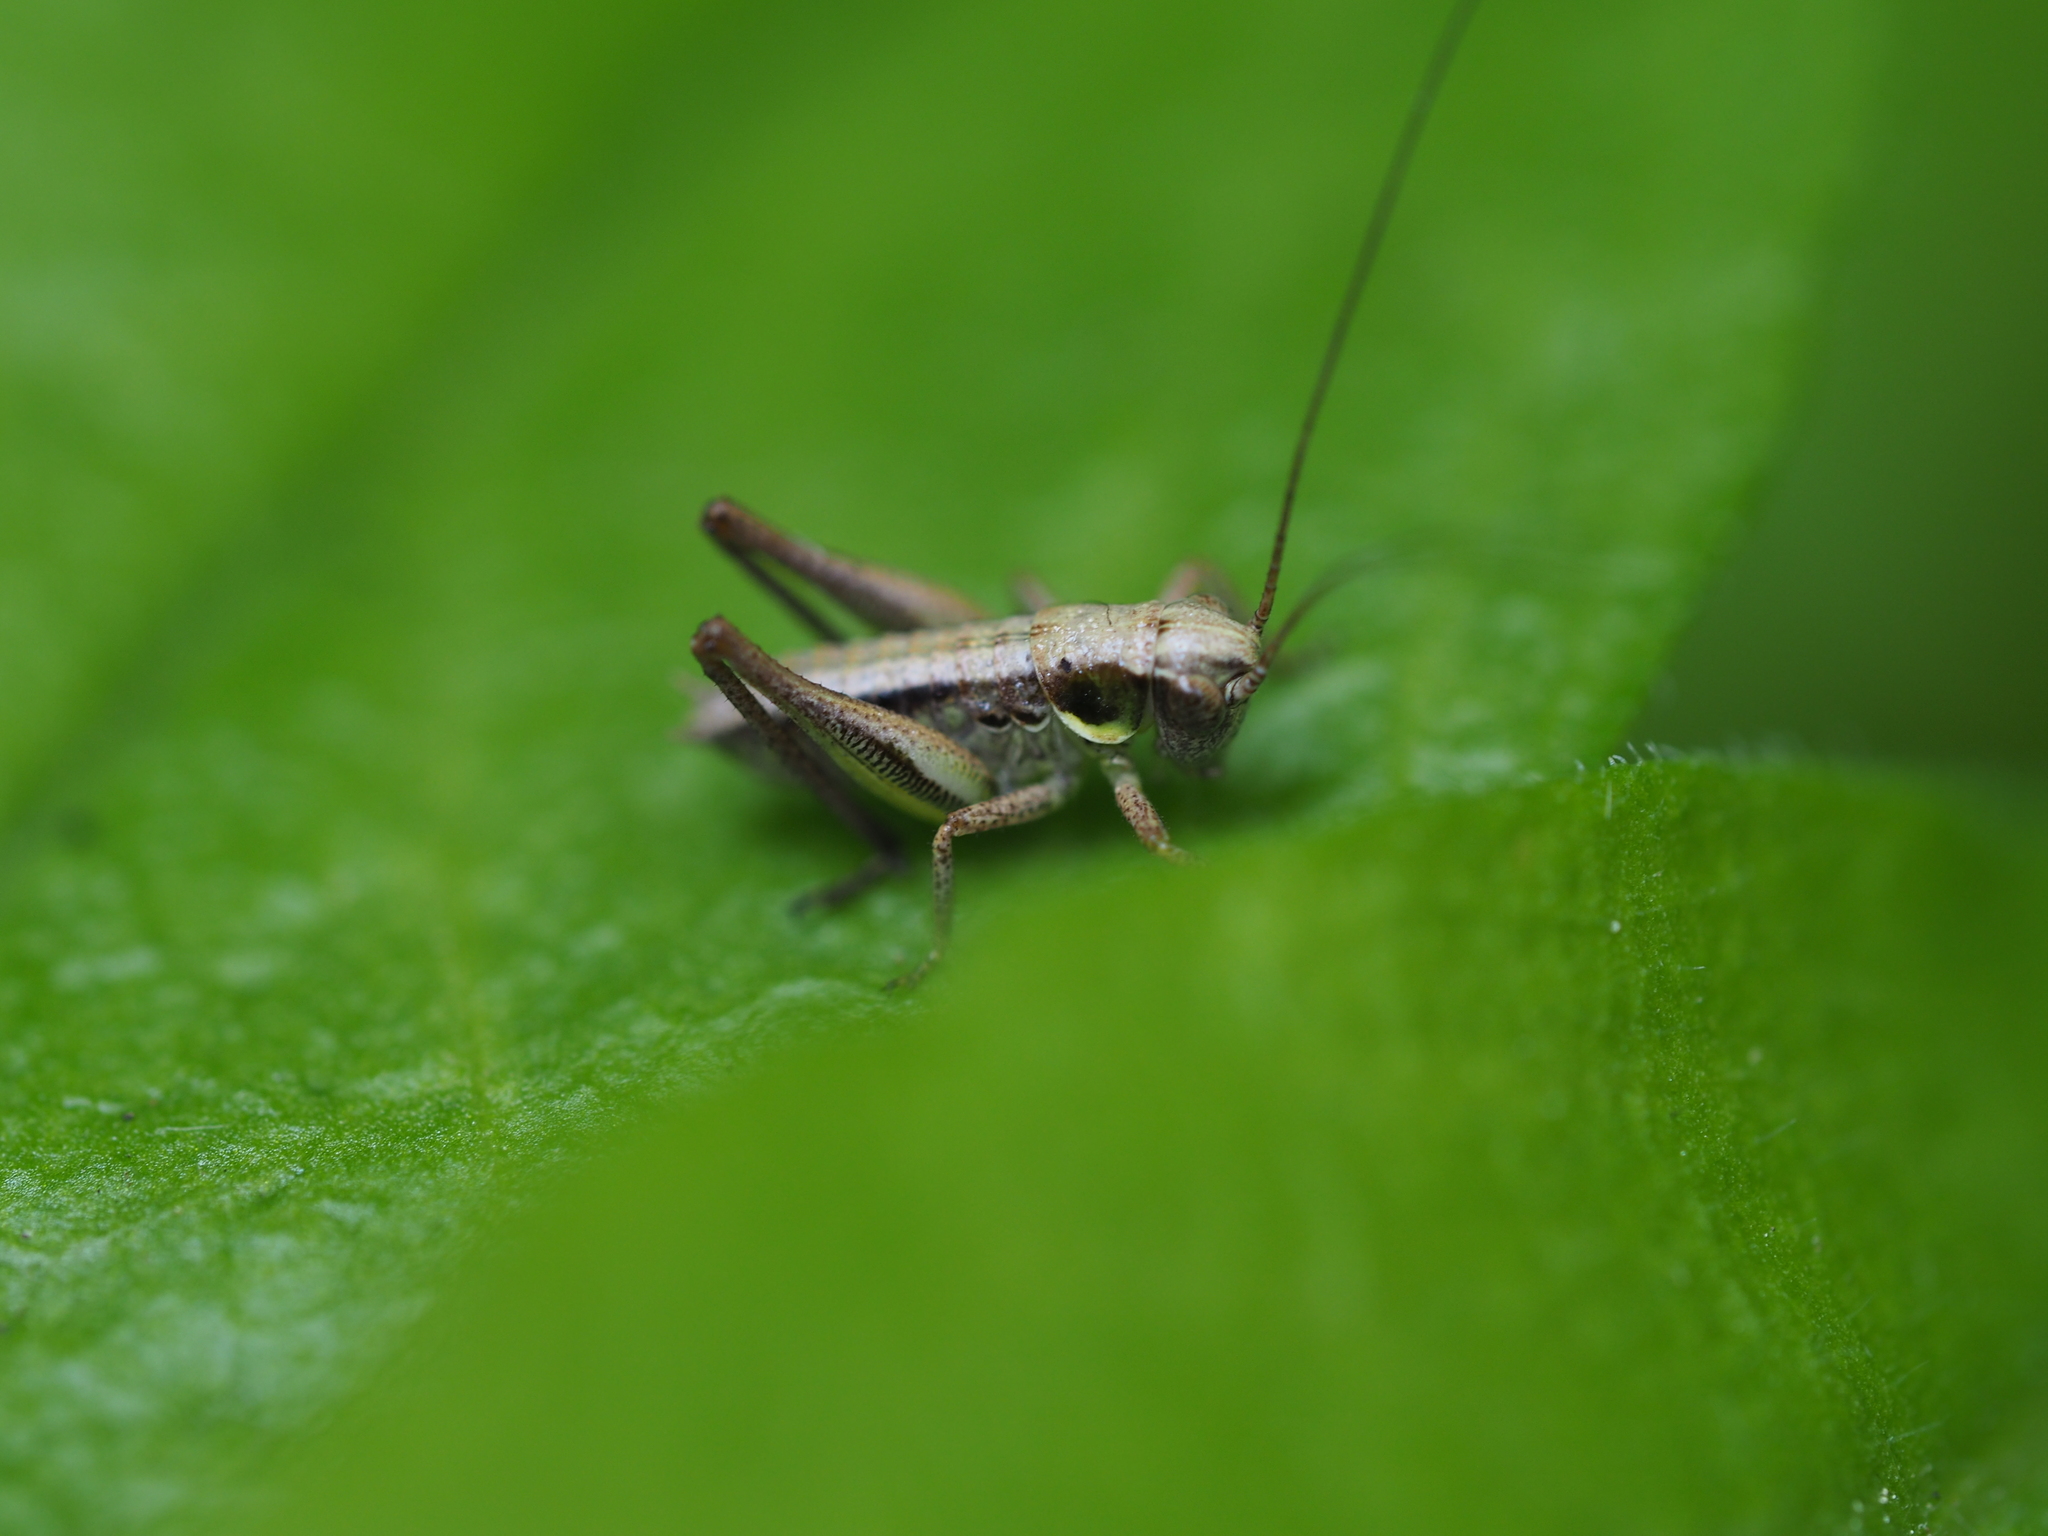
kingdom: Animalia
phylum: Arthropoda
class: Insecta
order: Orthoptera
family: Tettigoniidae
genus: Platycleis
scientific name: Platycleis grisea
